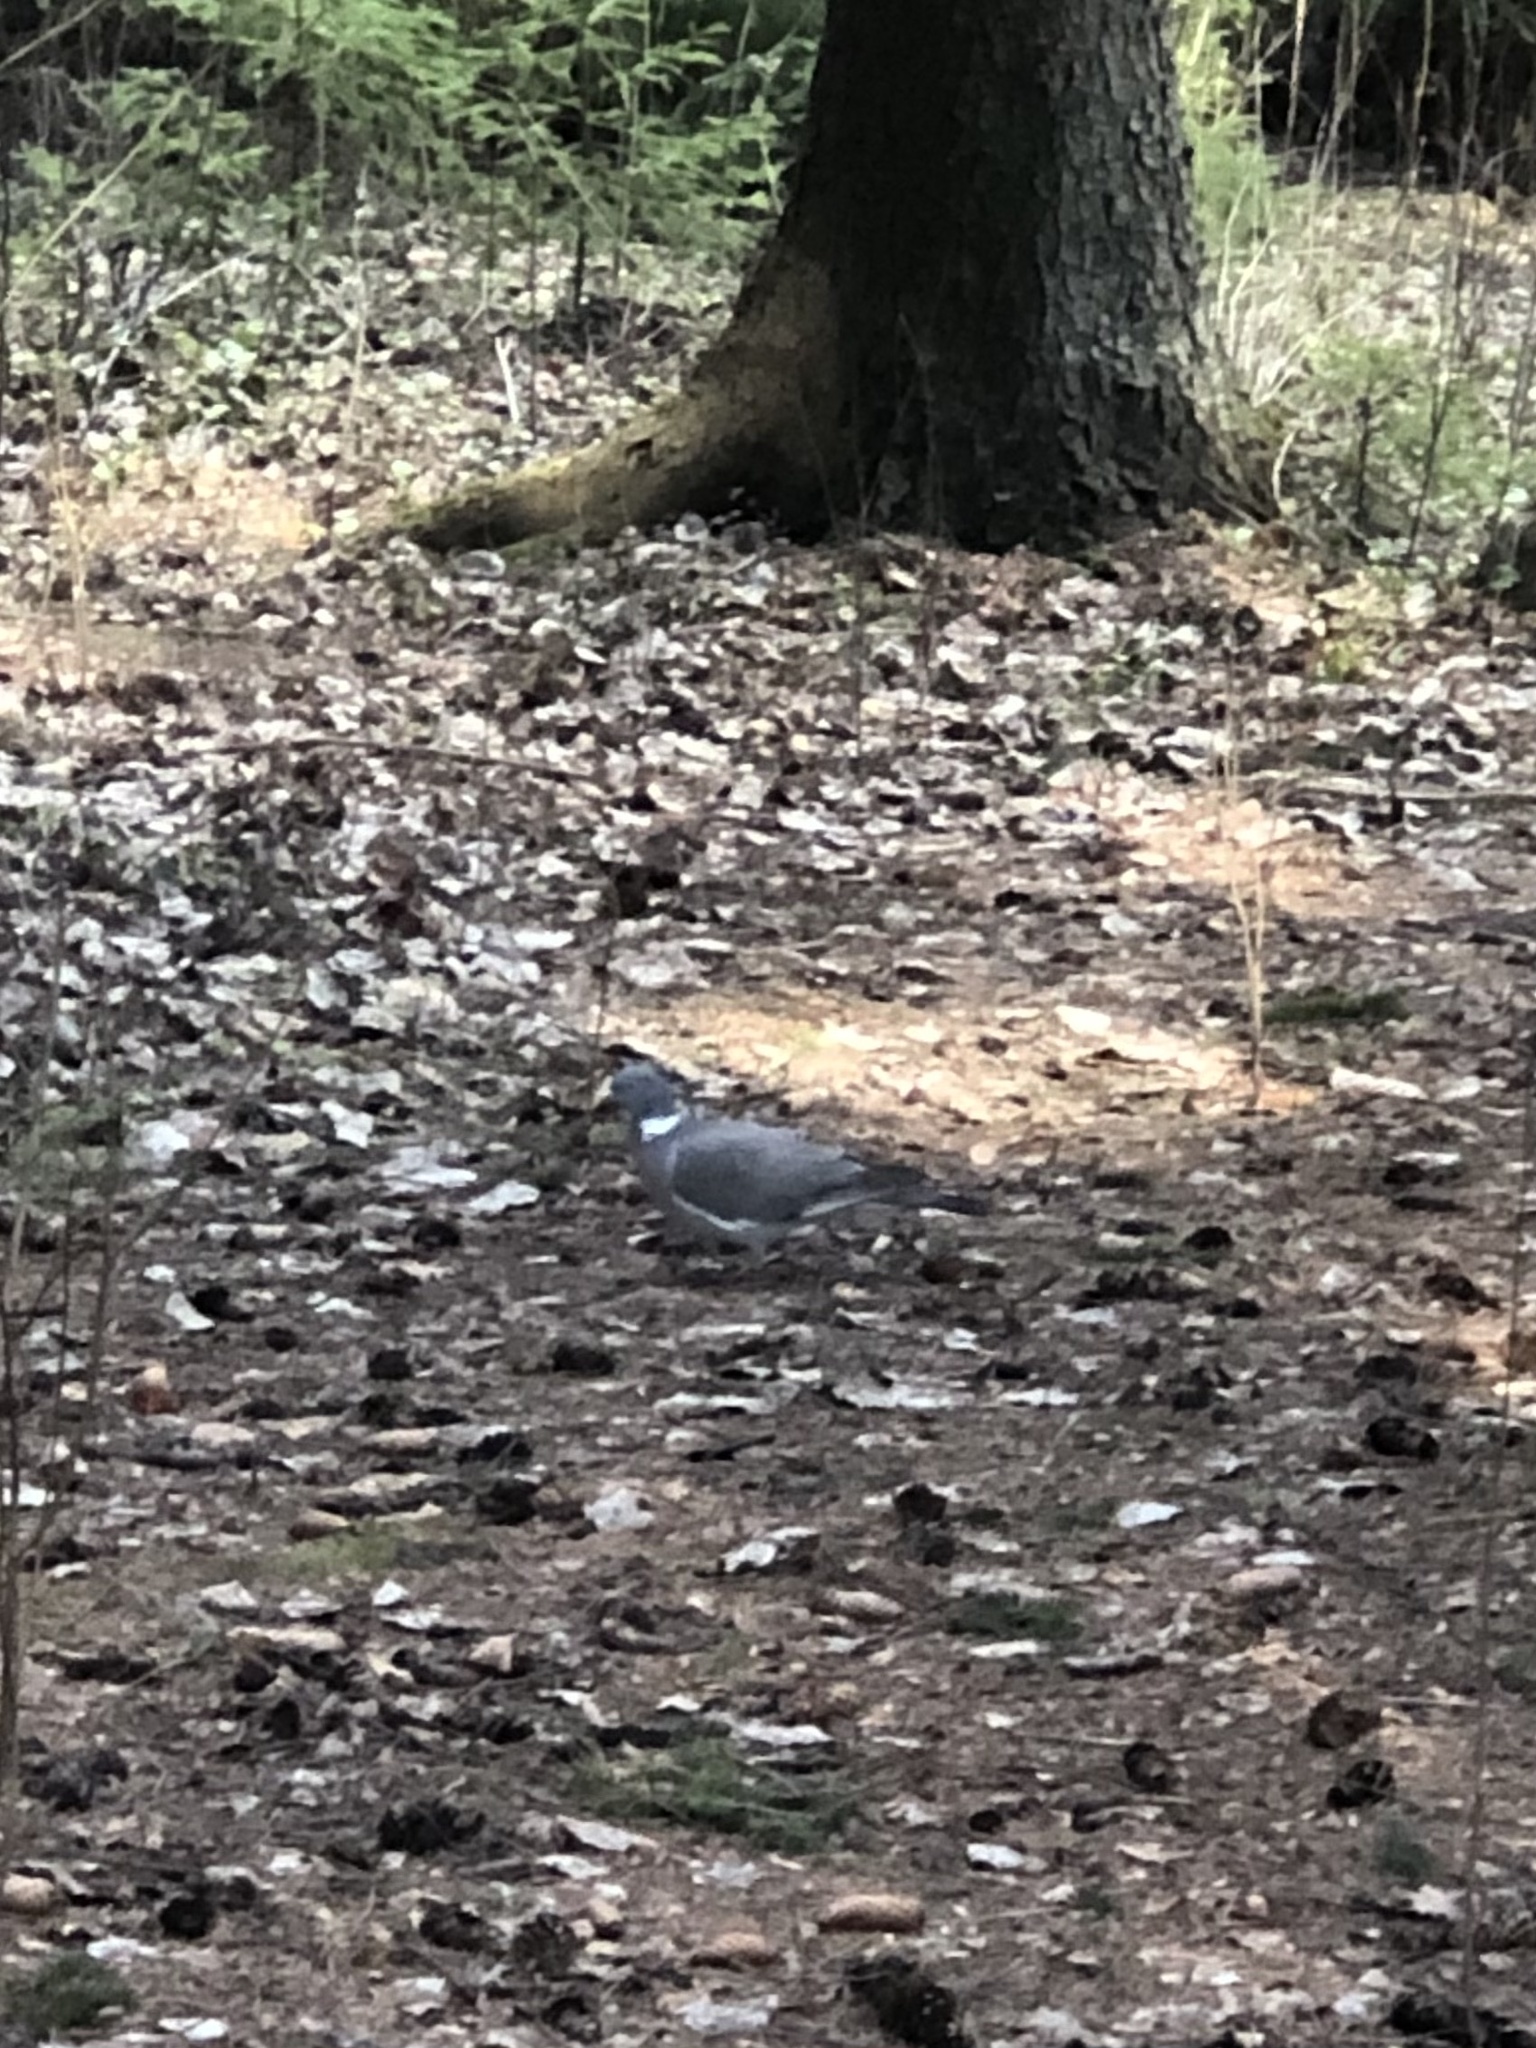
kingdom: Animalia
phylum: Chordata
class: Aves
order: Columbiformes
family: Columbidae
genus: Columba
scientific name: Columba palumbus
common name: Common wood pigeon
